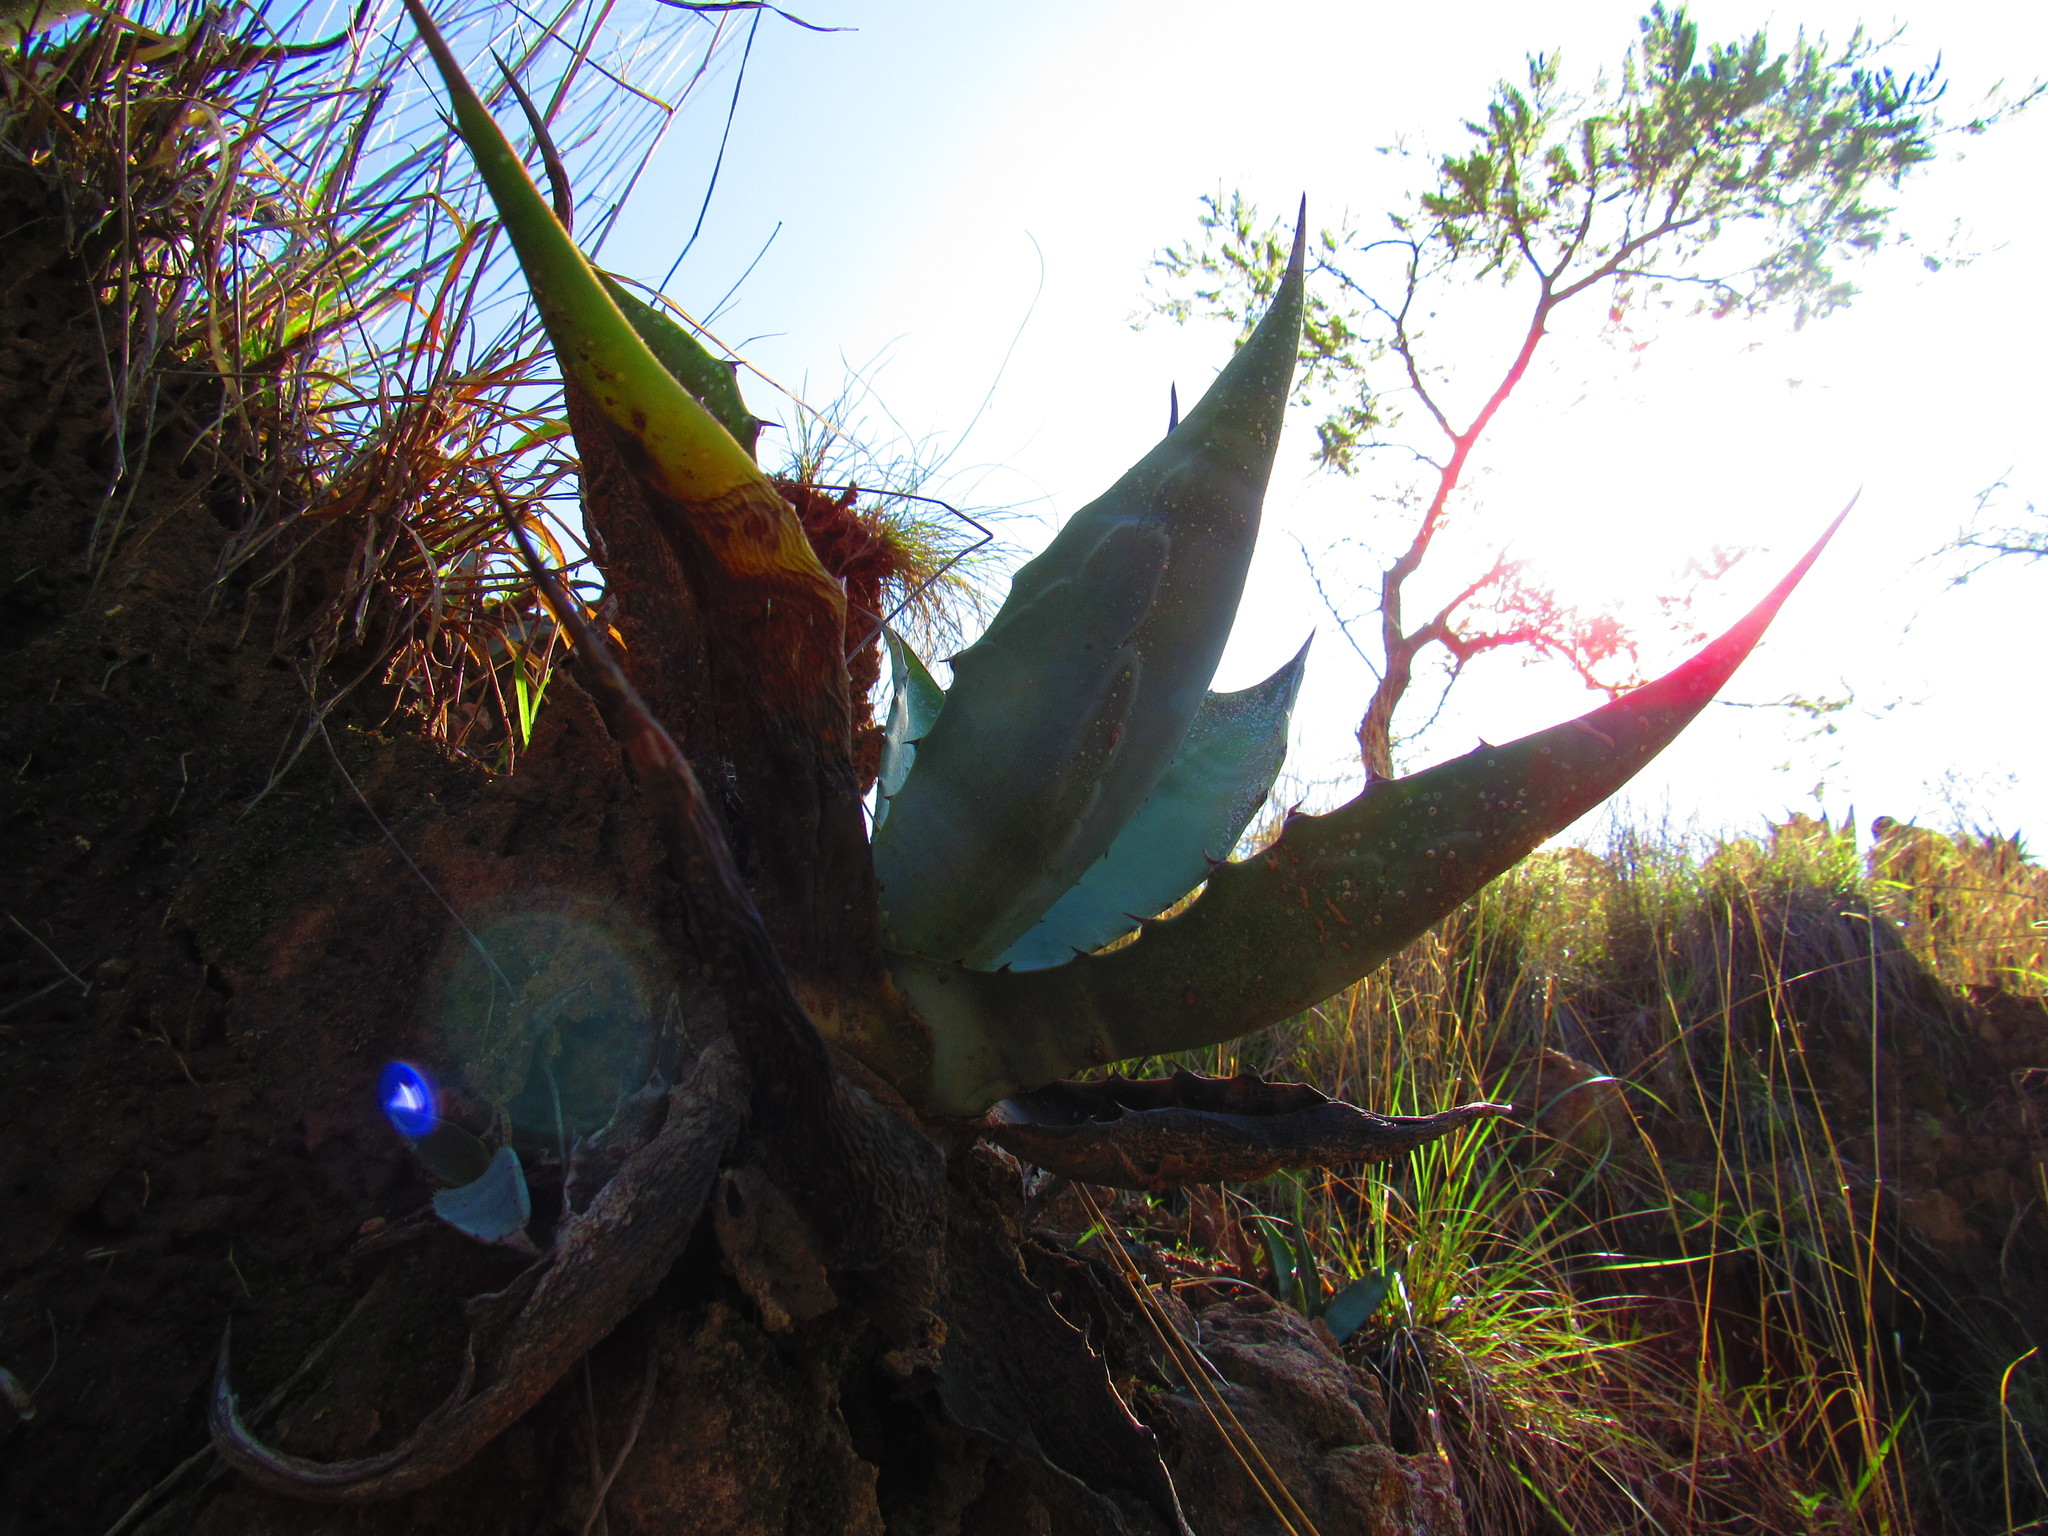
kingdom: Plantae
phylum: Tracheophyta
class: Liliopsida
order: Asparagales
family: Asparagaceae
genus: Agave
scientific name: Agave salmiana
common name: Pulque agave
